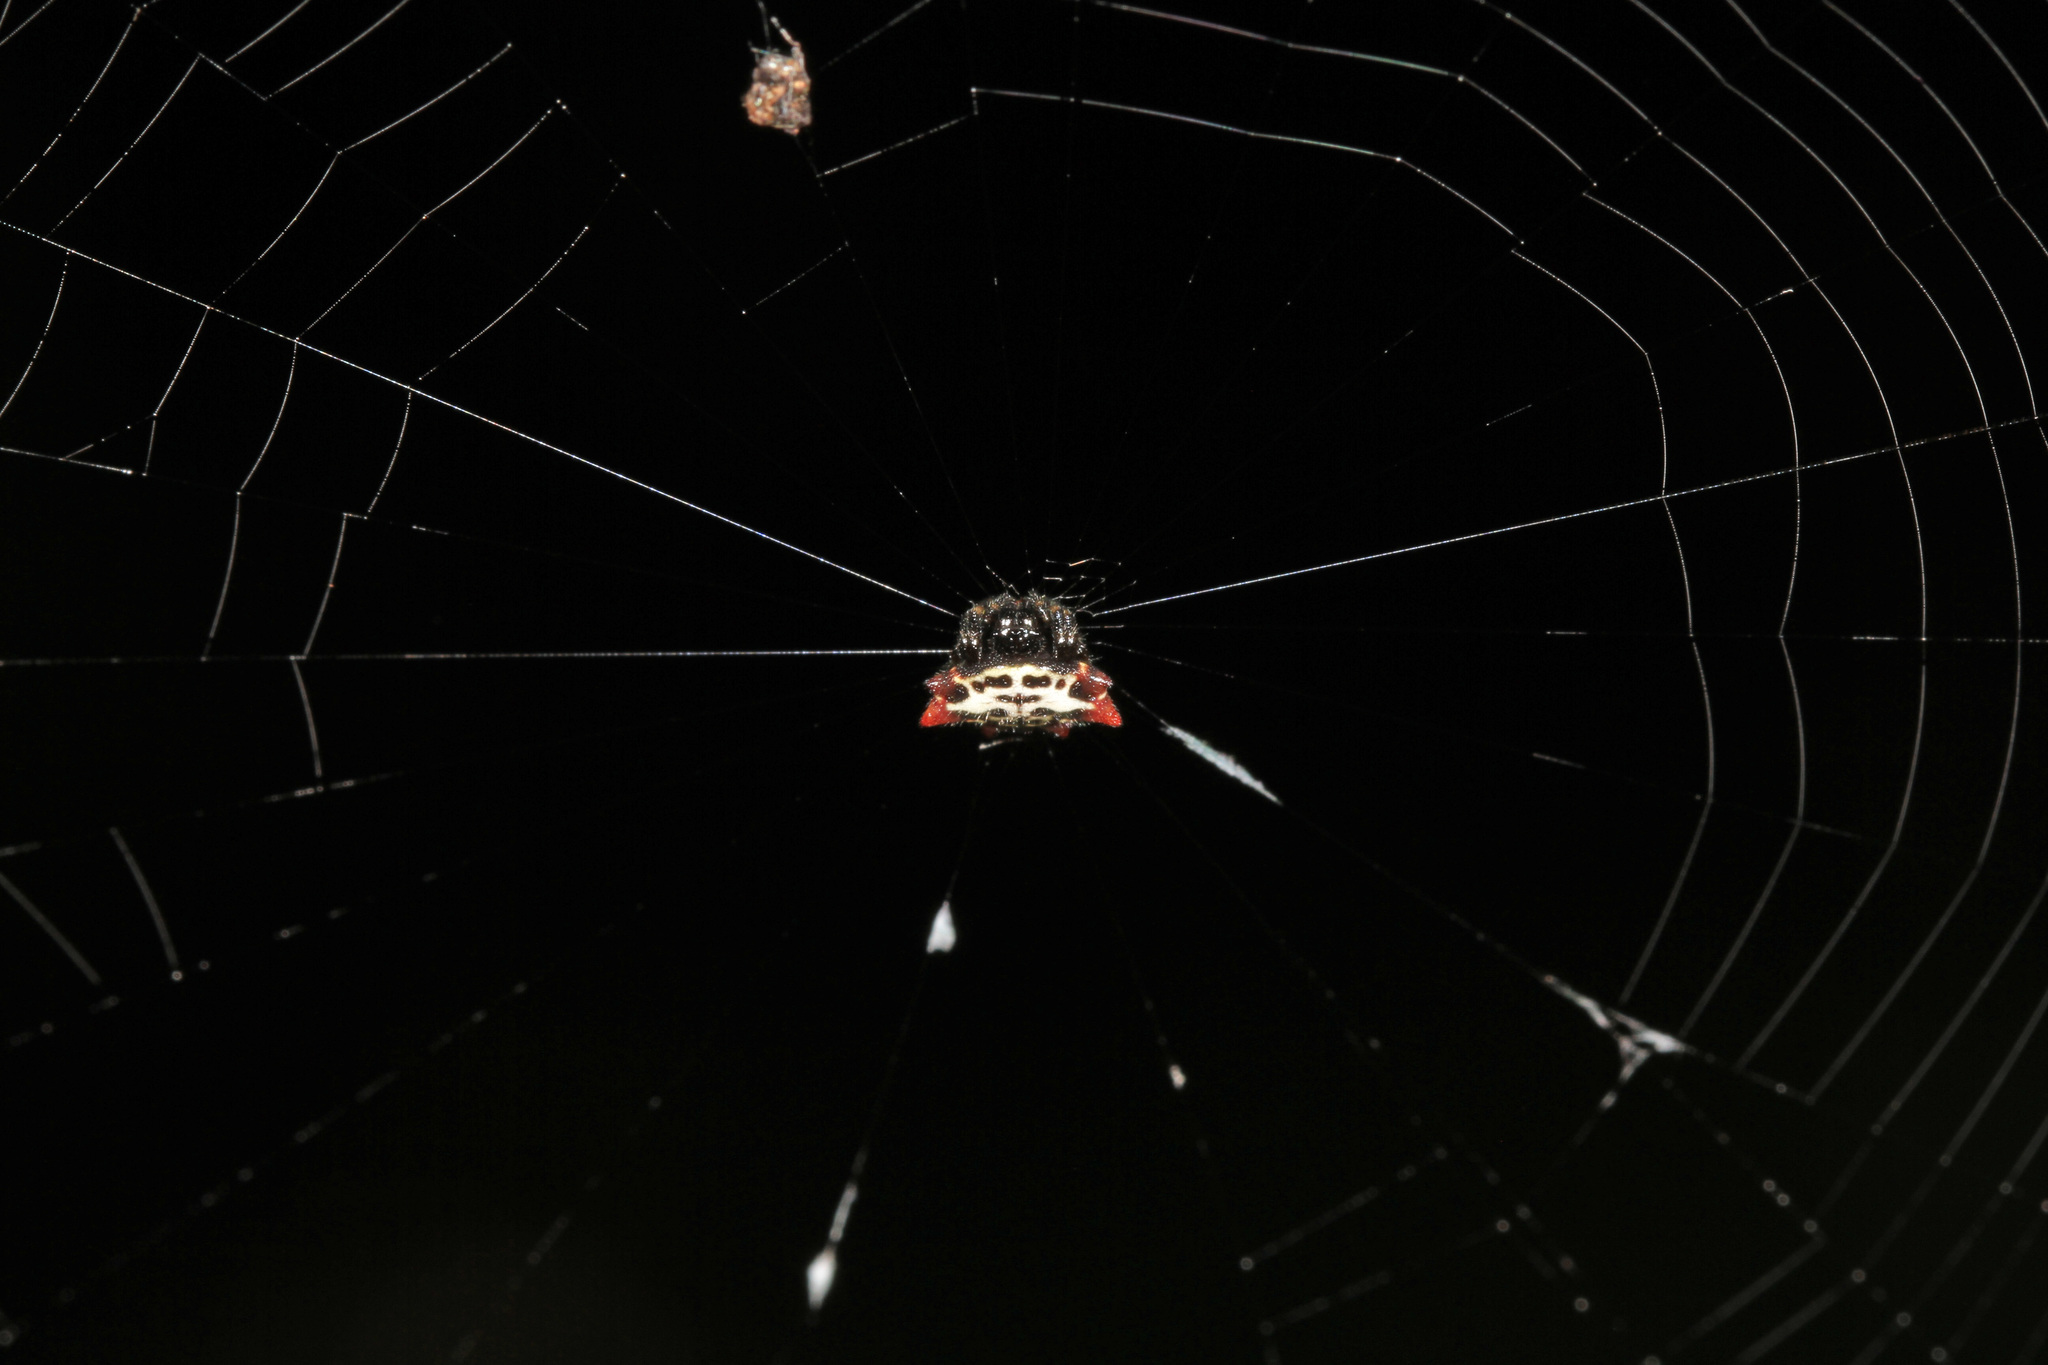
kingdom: Animalia
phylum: Arthropoda
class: Arachnida
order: Araneae
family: Araneidae
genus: Gasteracantha
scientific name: Gasteracantha cancriformis
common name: Orb weavers
